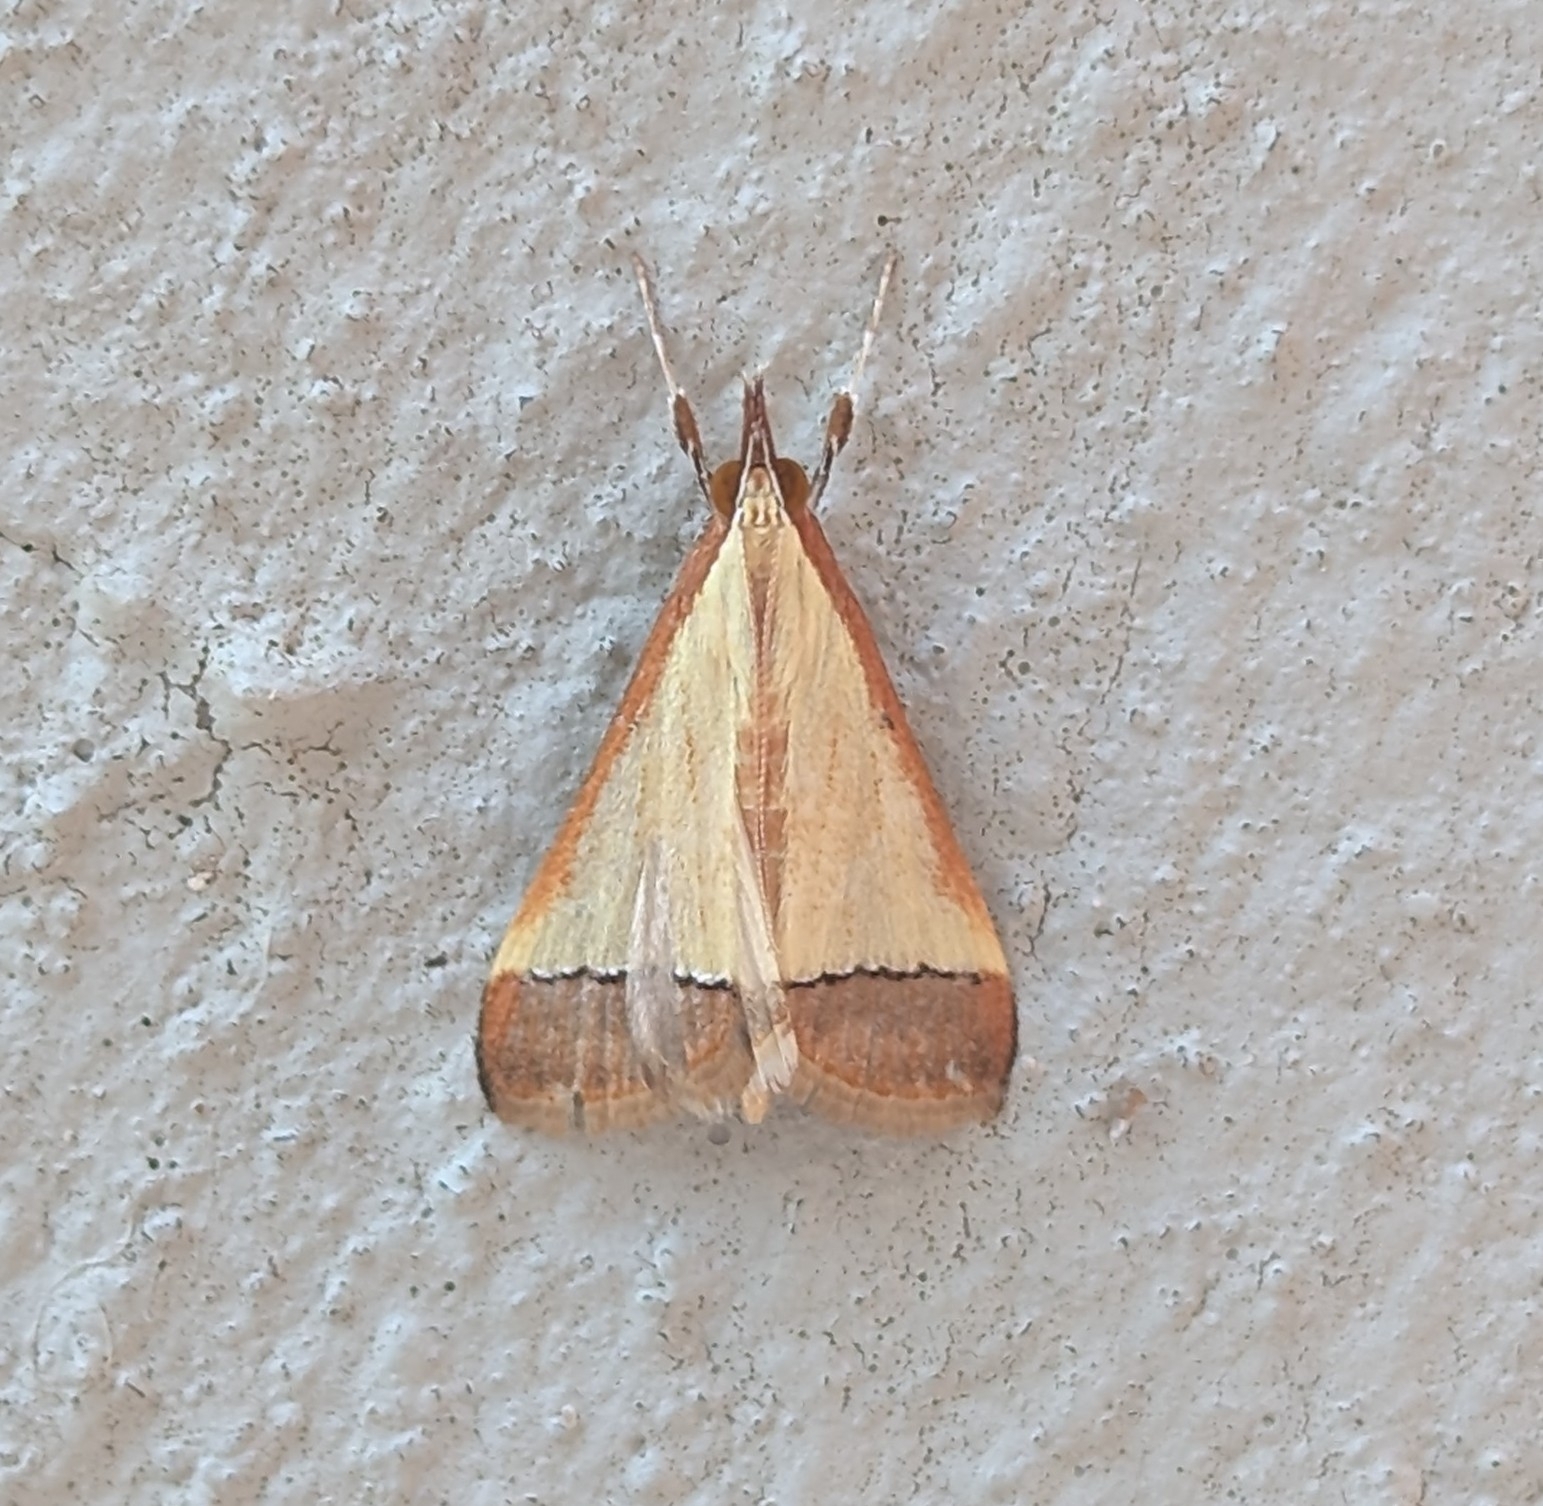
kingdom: Animalia
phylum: Arthropoda
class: Insecta
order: Lepidoptera
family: Crambidae
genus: Autocharis
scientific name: Autocharis rubricostalis
